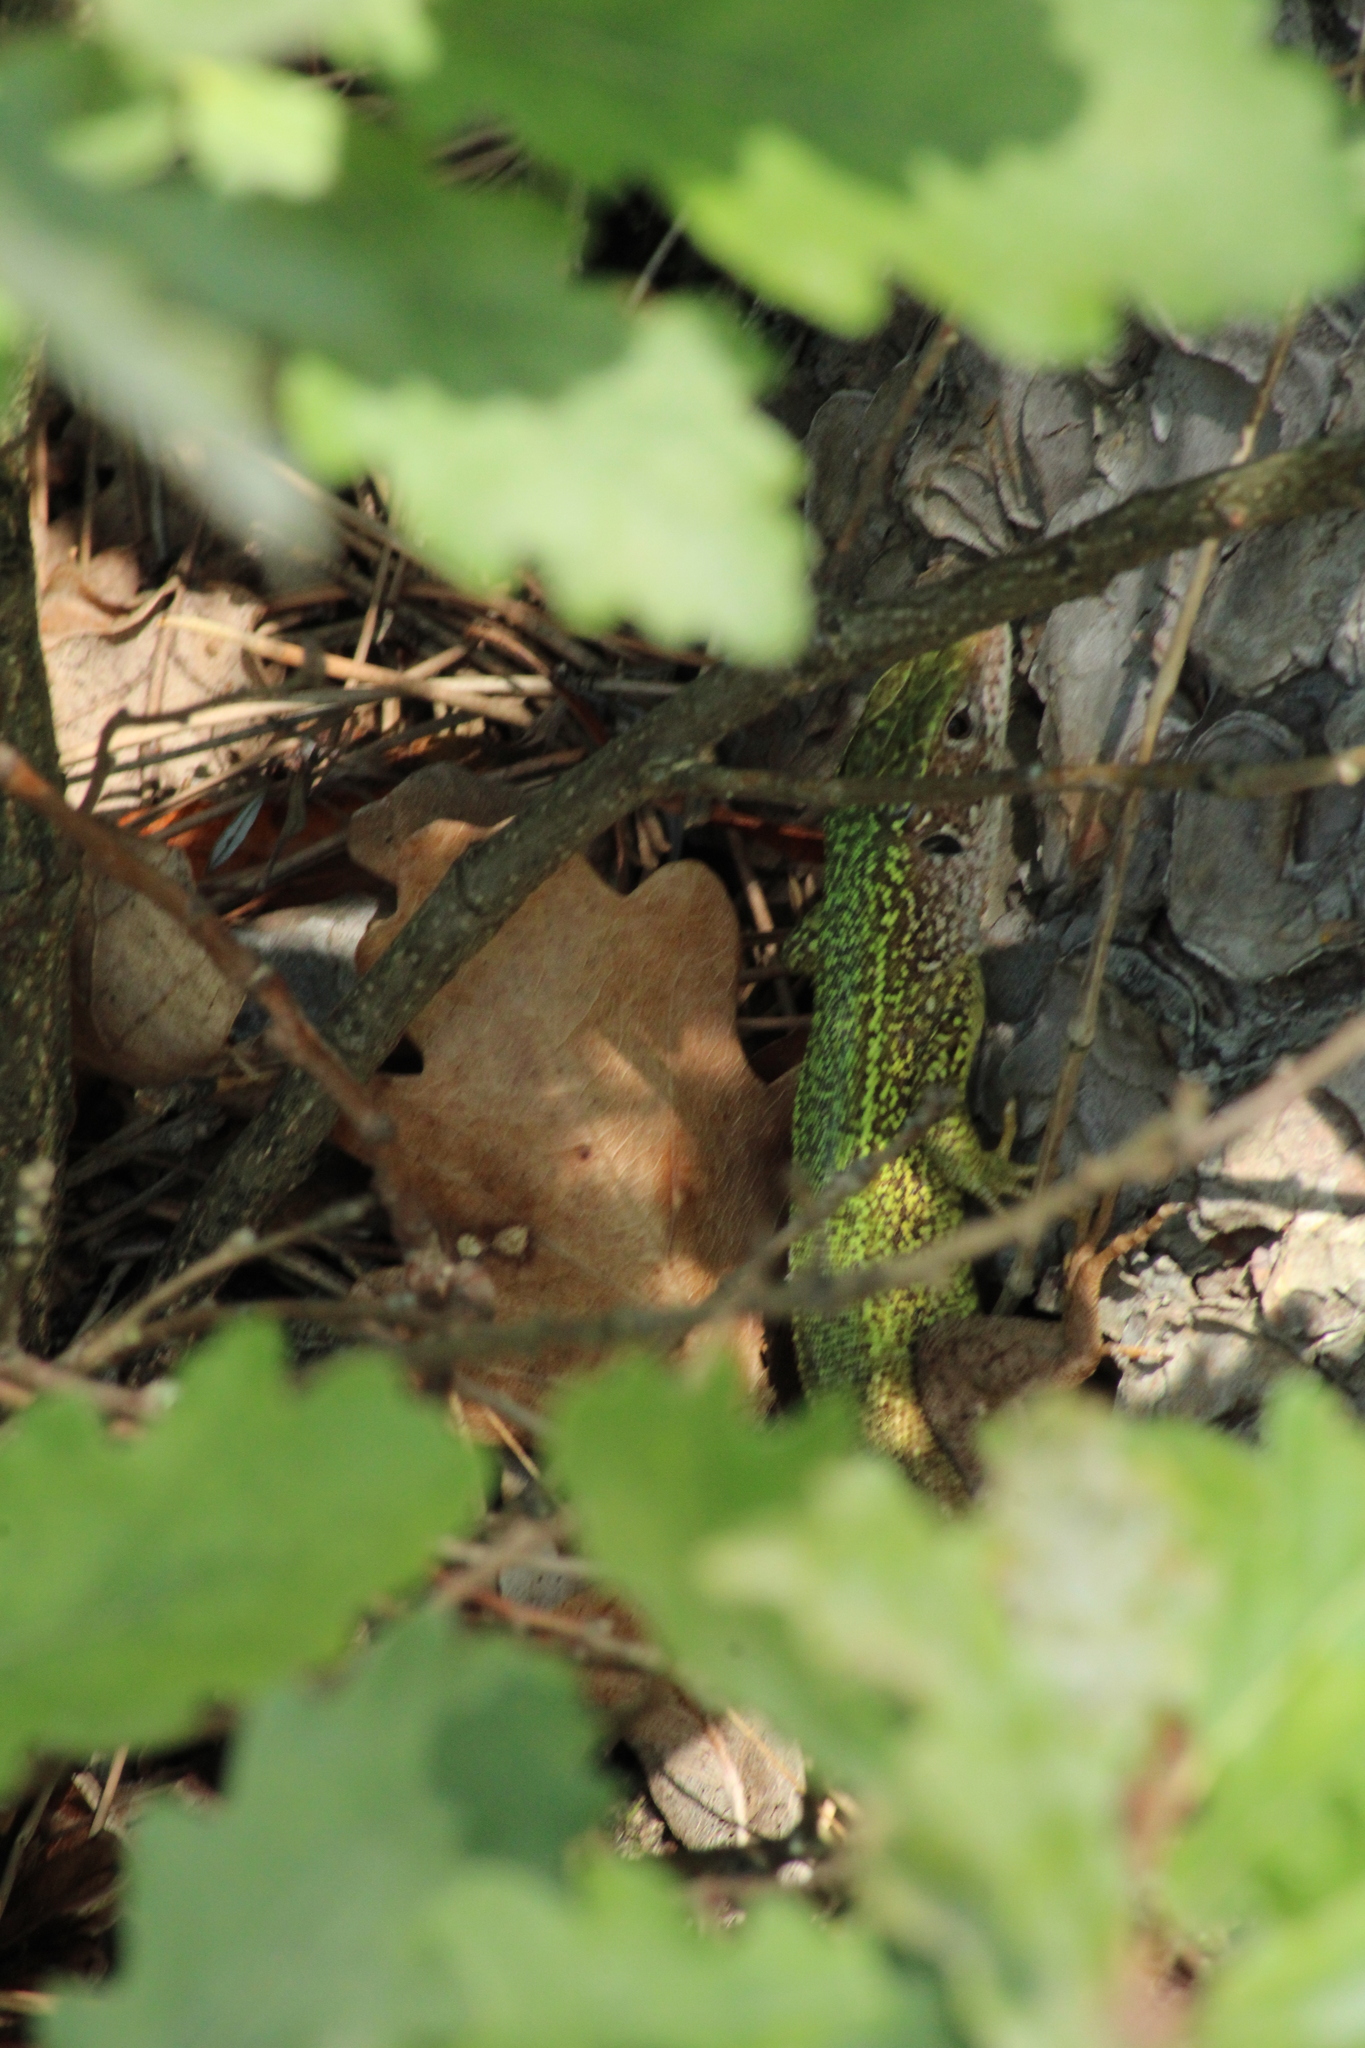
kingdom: Animalia
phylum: Chordata
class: Squamata
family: Lacertidae
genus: Lacerta
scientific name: Lacerta viridis
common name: European green lizard
